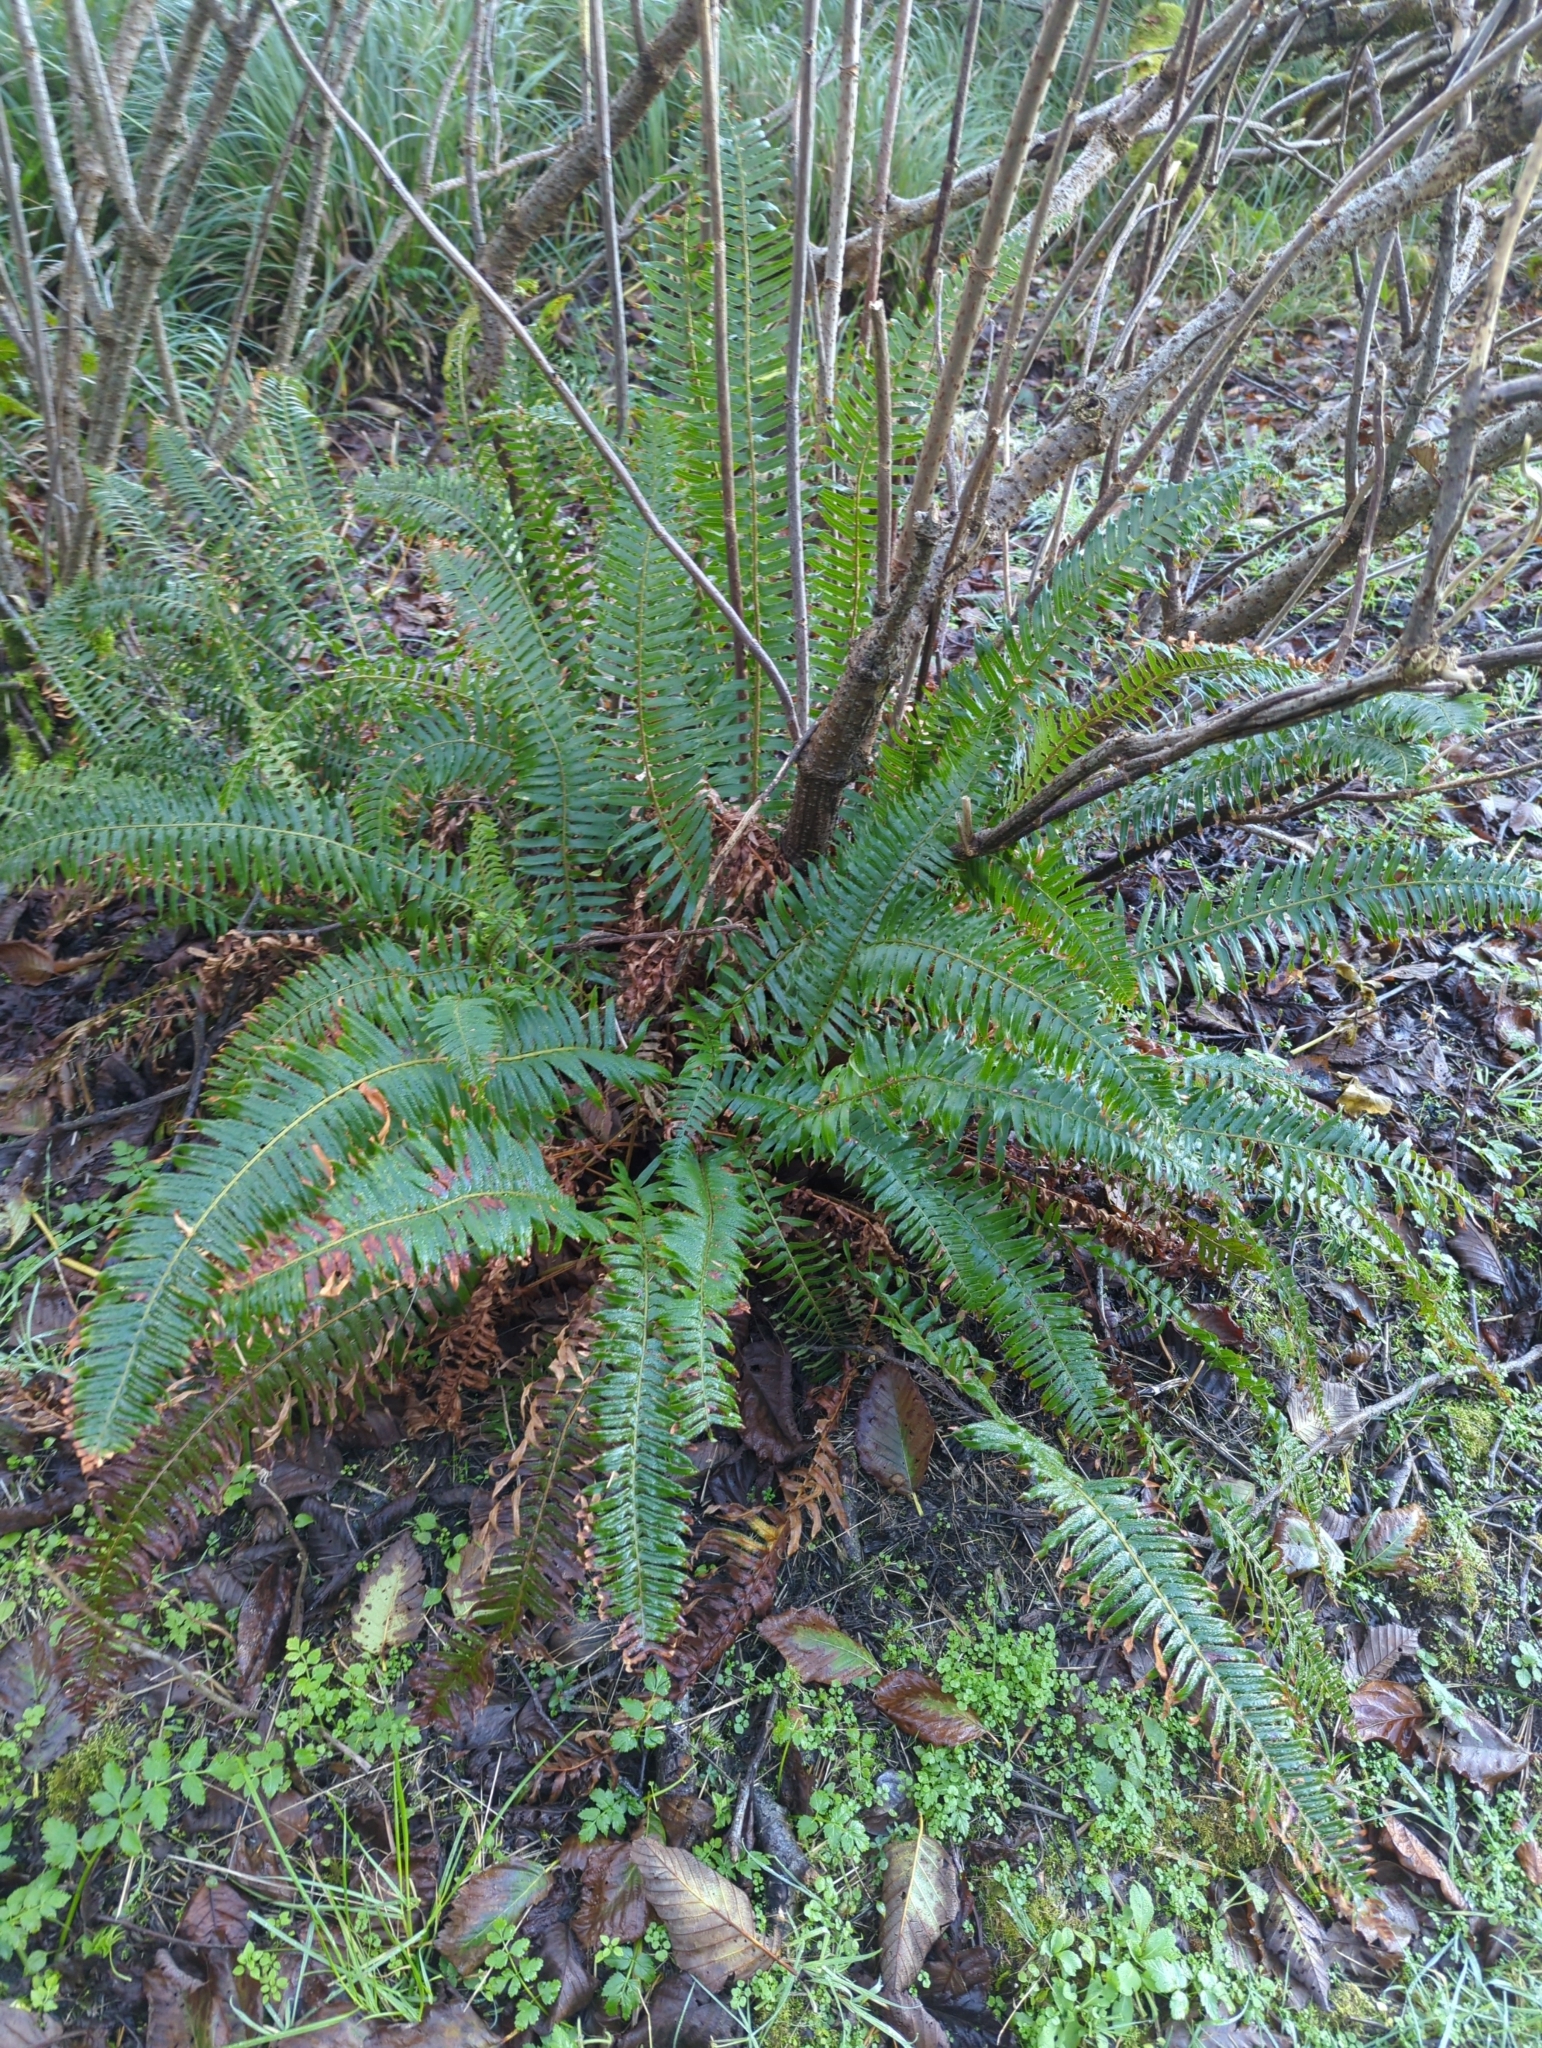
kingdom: Plantae
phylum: Tracheophyta
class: Polypodiopsida
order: Polypodiales
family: Dryopteridaceae
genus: Polystichum
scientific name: Polystichum munitum
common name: Western sword-fern
